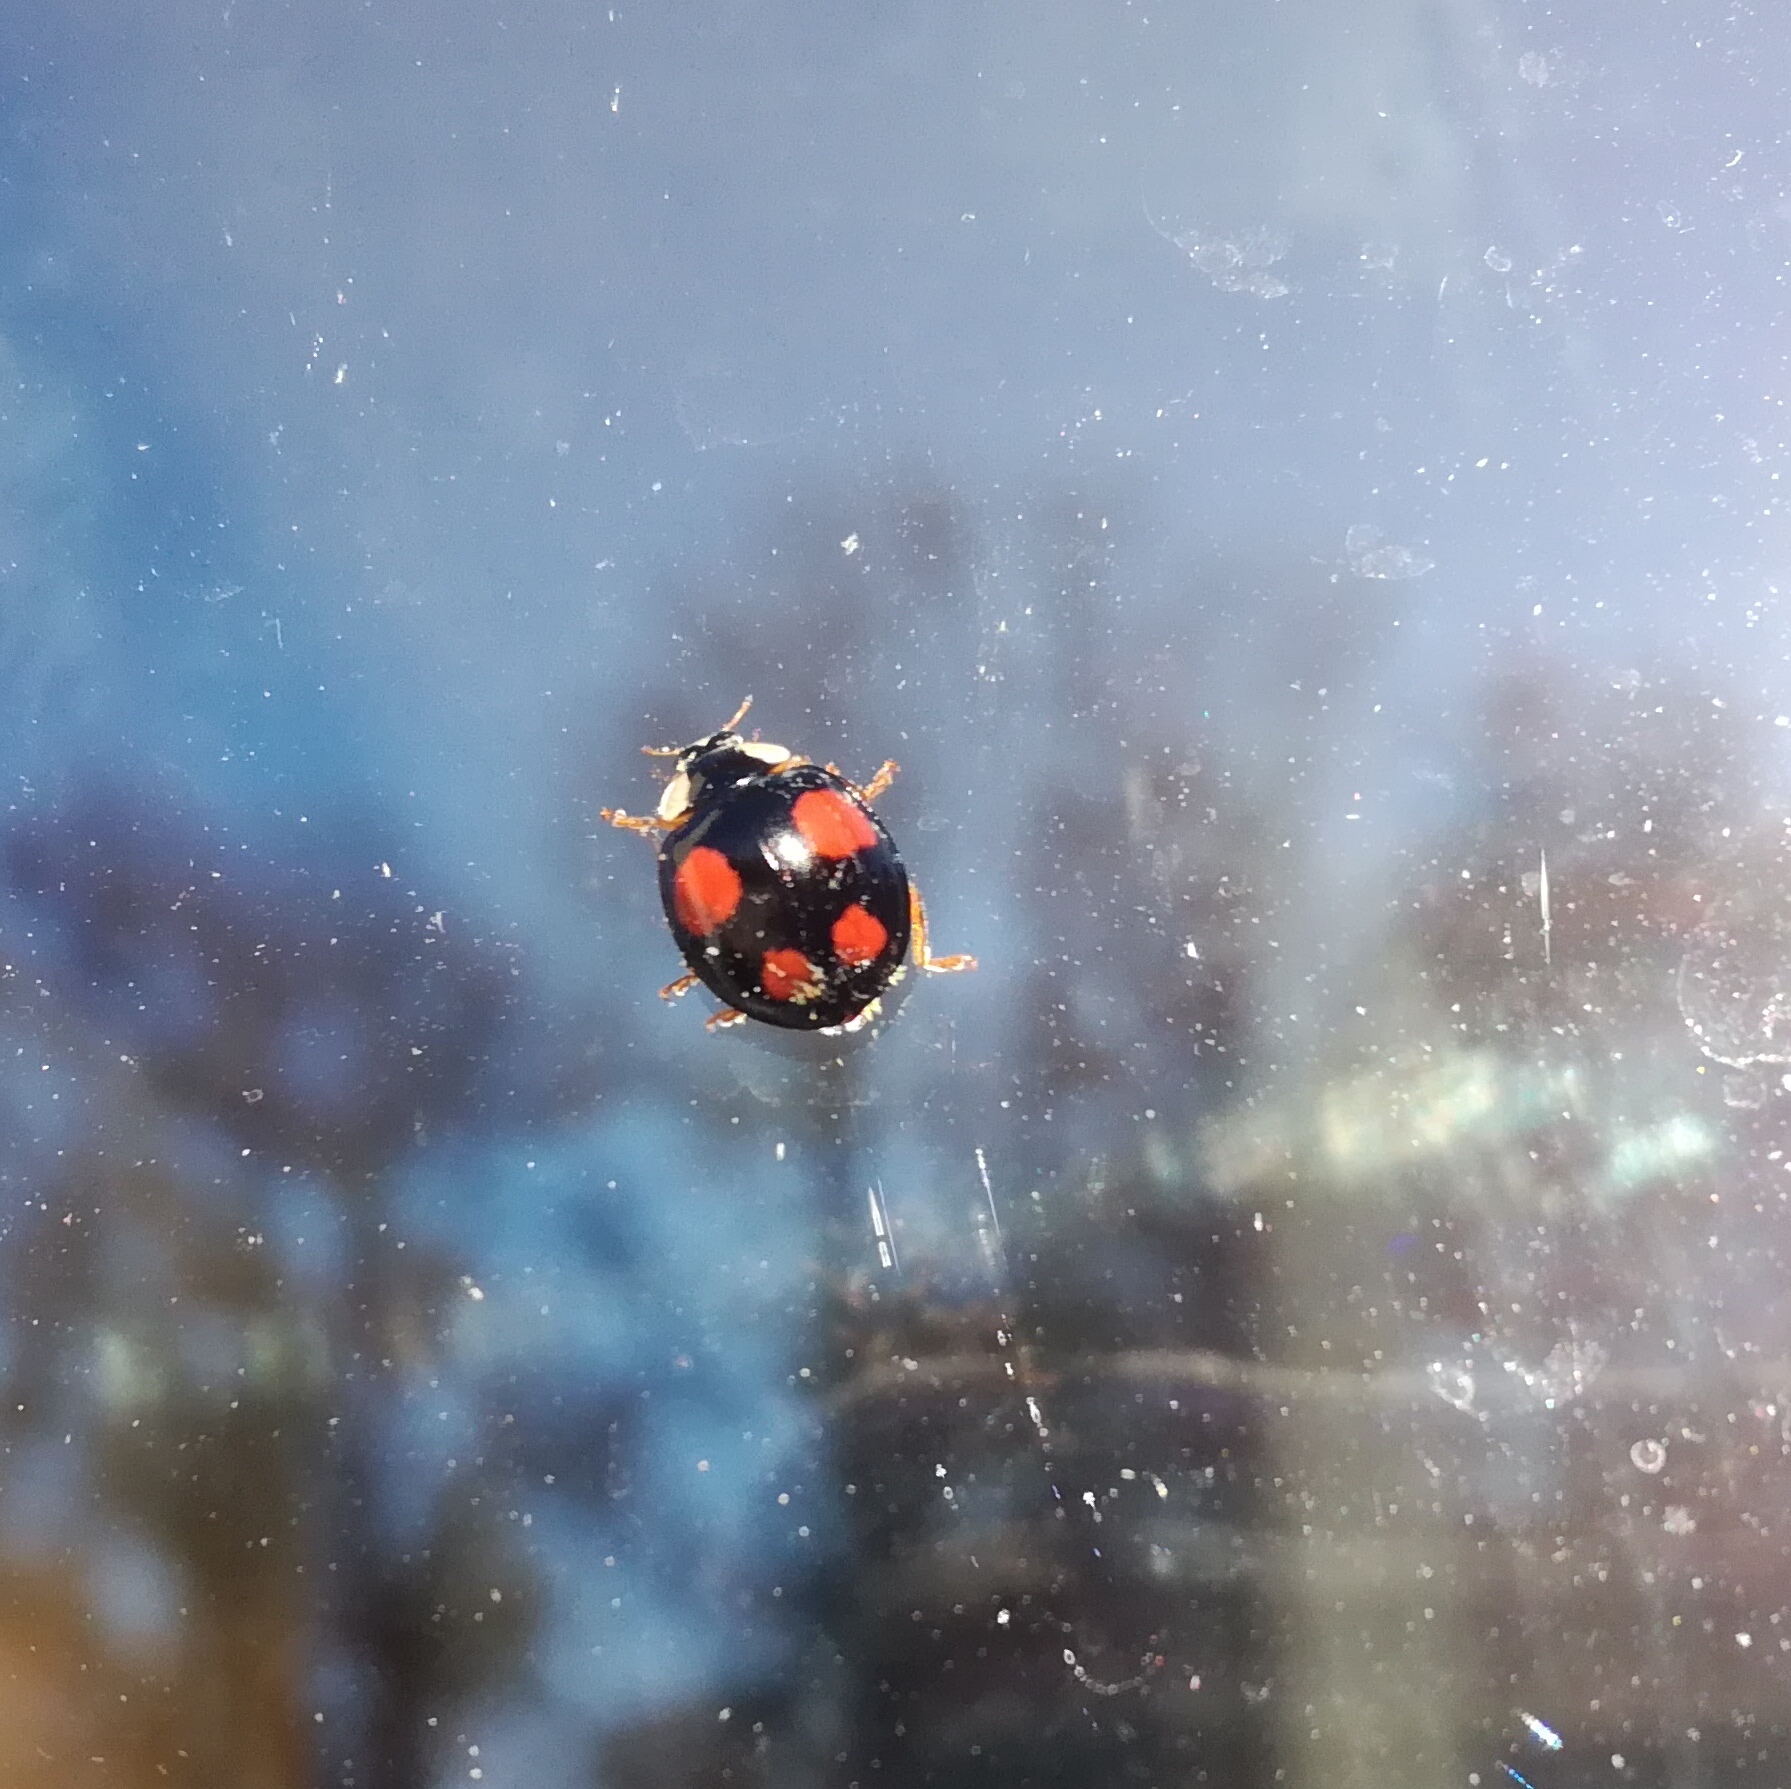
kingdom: Animalia
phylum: Arthropoda
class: Insecta
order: Coleoptera
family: Coccinellidae
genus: Harmonia
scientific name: Harmonia axyridis
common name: Harlequin ladybird
